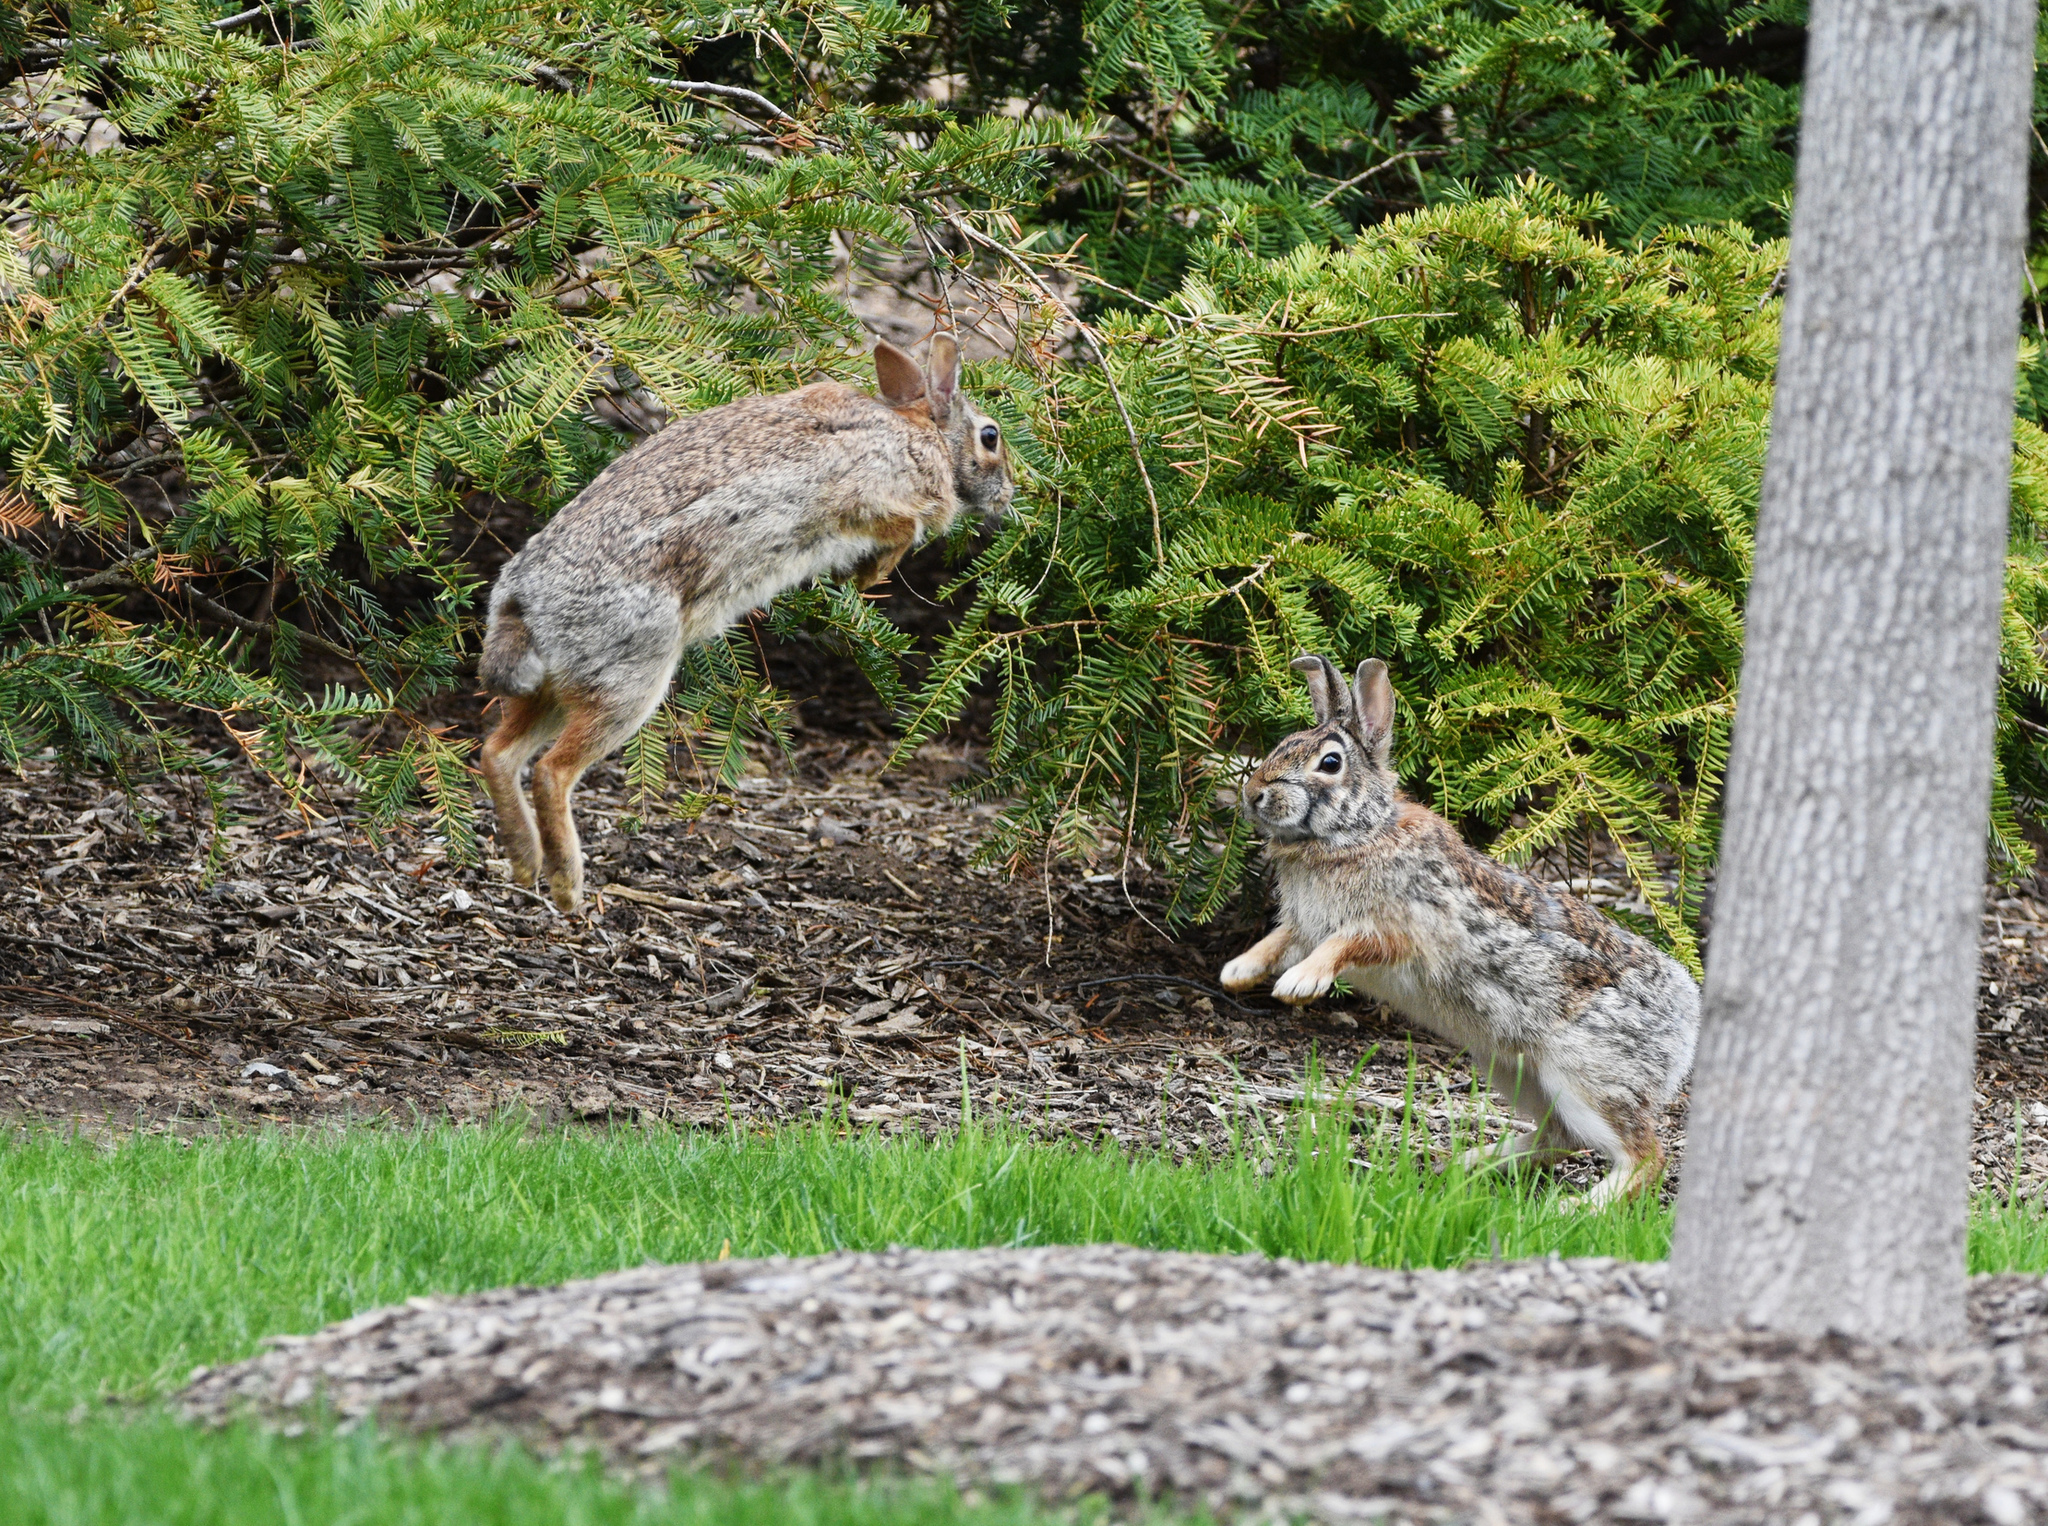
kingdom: Animalia
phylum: Chordata
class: Mammalia
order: Lagomorpha
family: Leporidae
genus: Sylvilagus
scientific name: Sylvilagus floridanus
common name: Eastern cottontail
